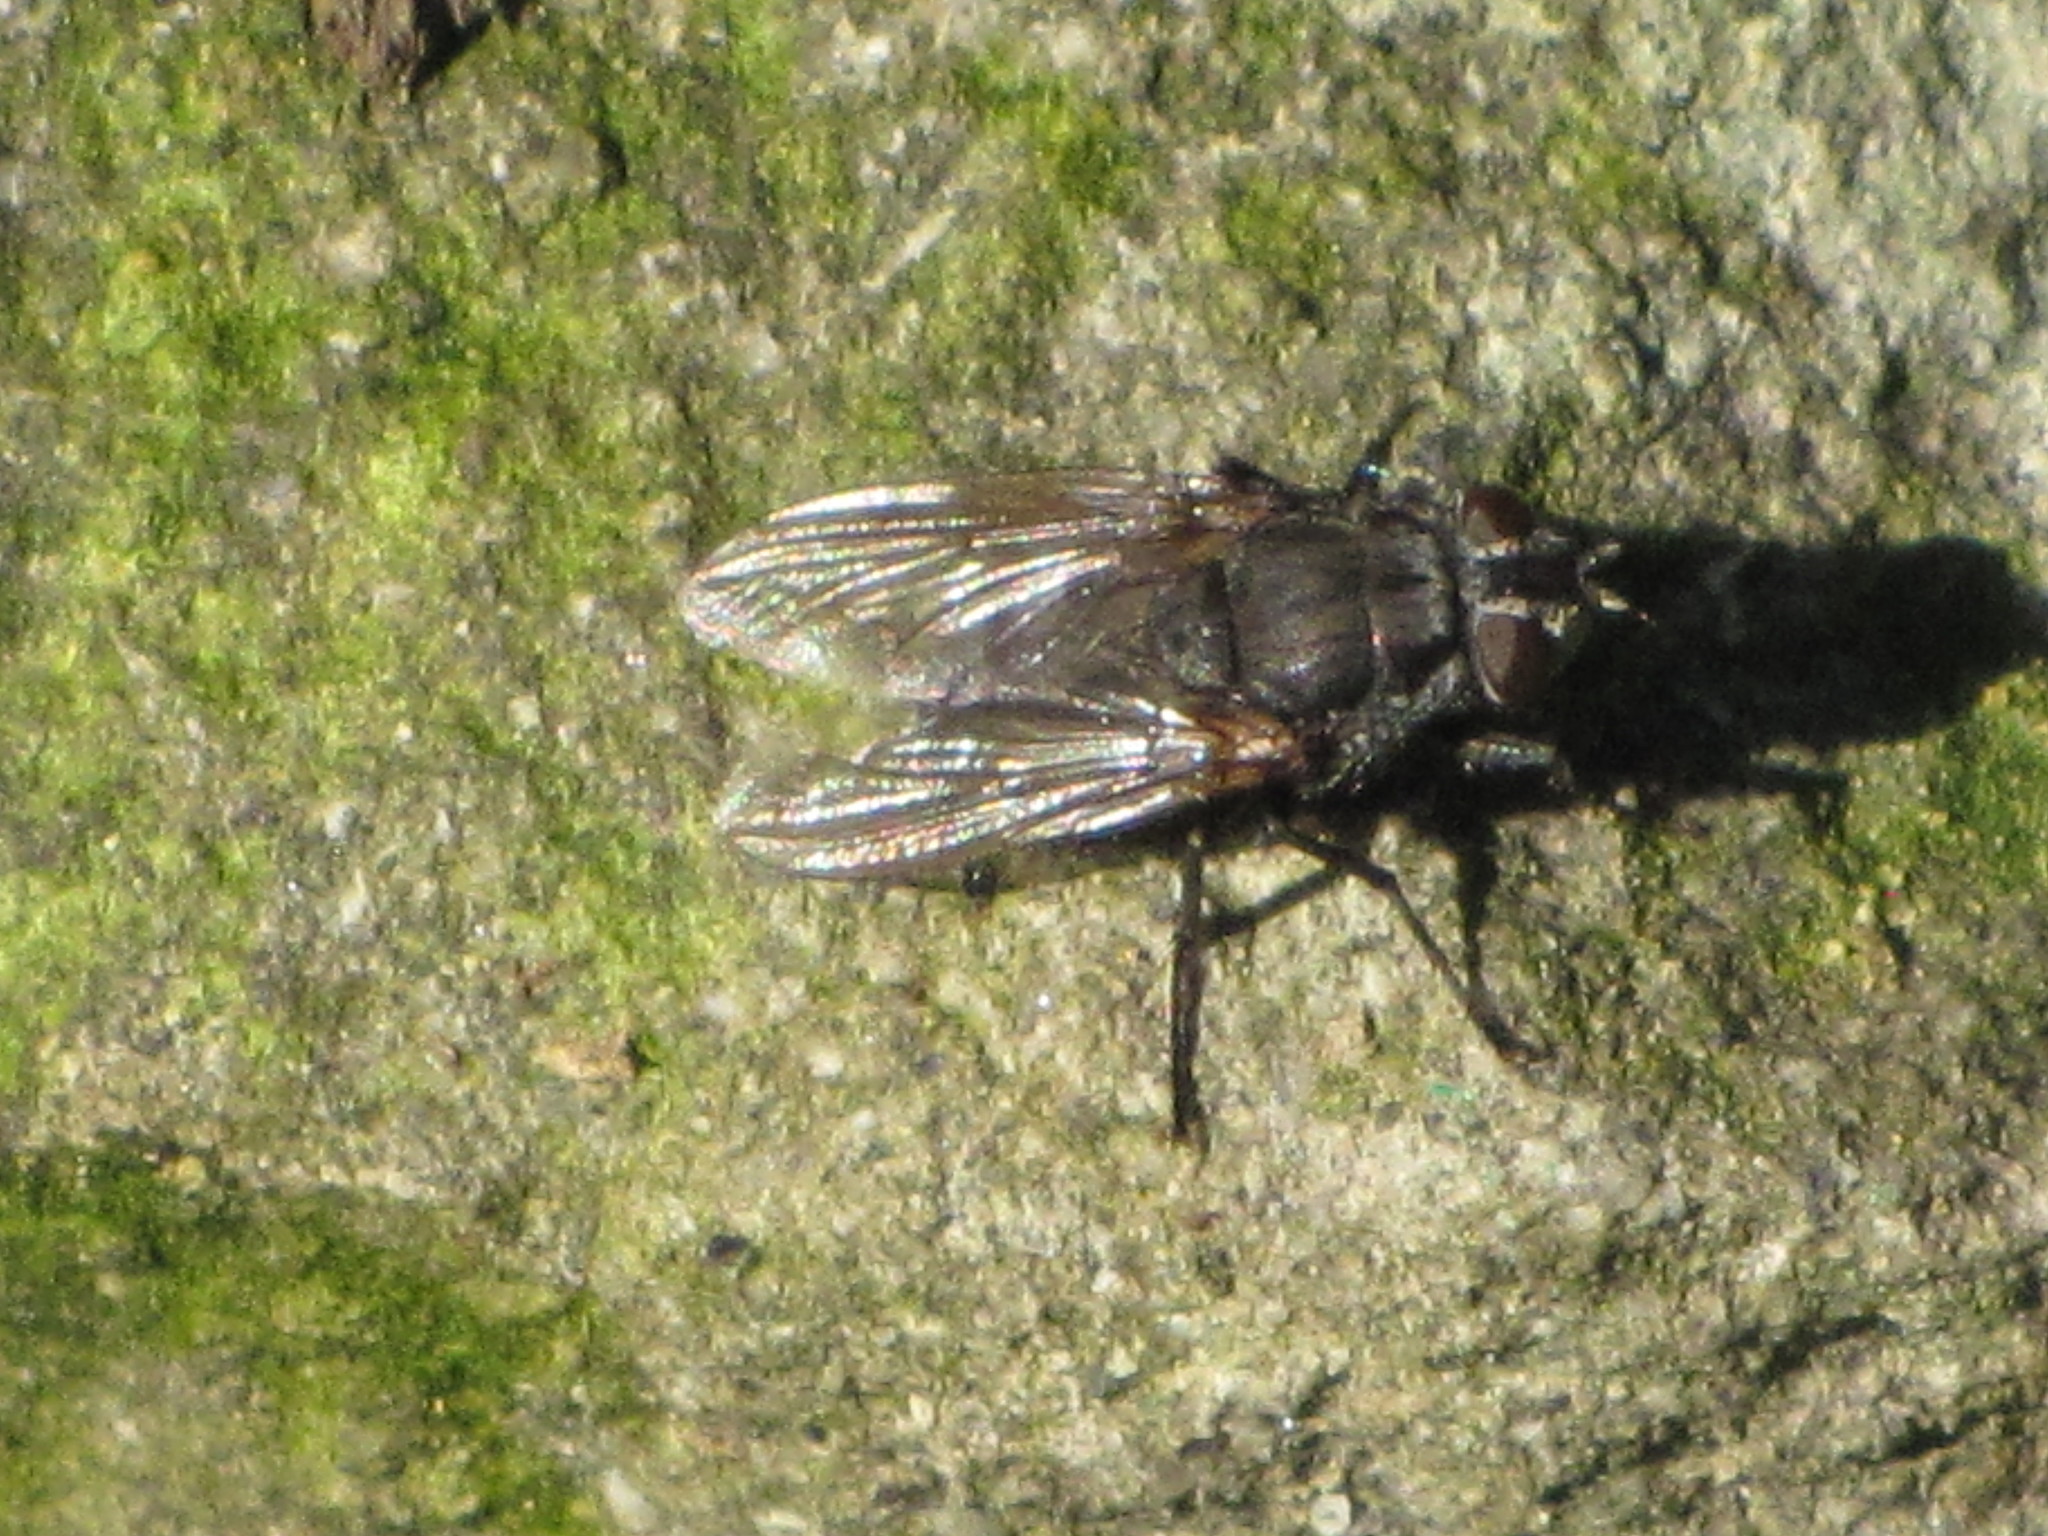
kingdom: Animalia
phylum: Arthropoda
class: Insecta
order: Diptera
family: Polleniidae
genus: Pollenia
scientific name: Pollenia vagabunda
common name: Vagabund cluster fly
